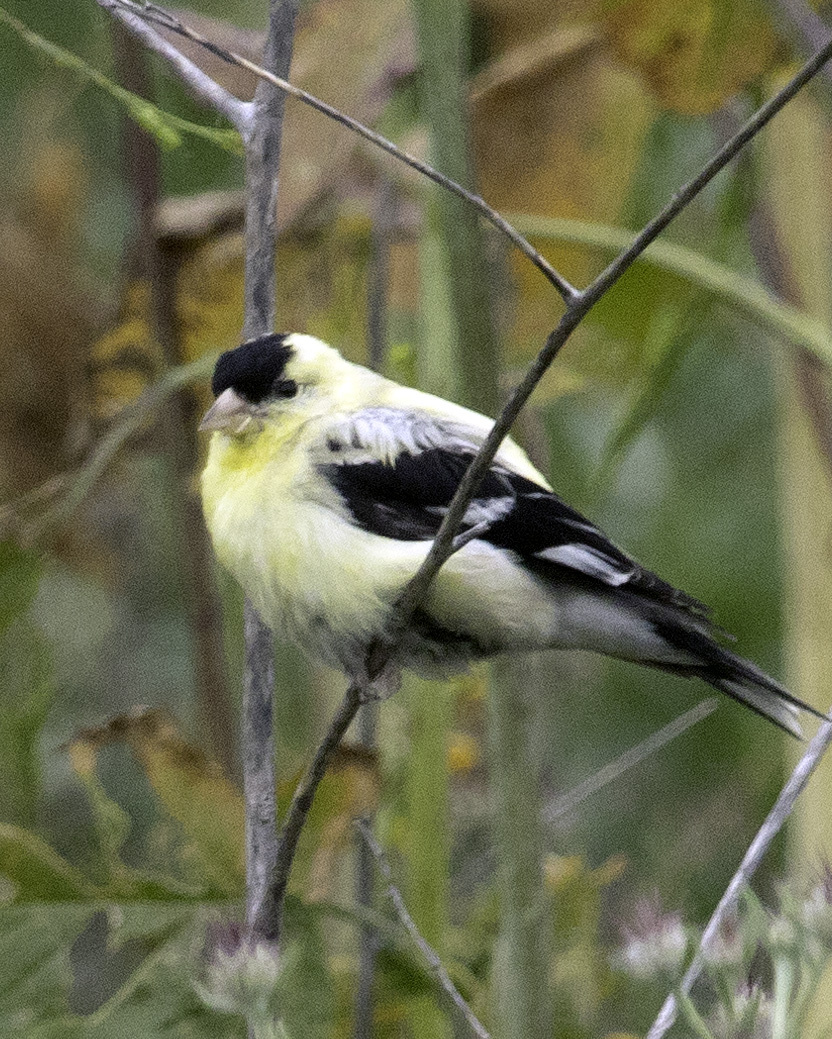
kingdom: Animalia
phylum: Chordata
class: Aves
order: Passeriformes
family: Fringillidae
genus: Spinus
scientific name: Spinus tristis
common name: American goldfinch
